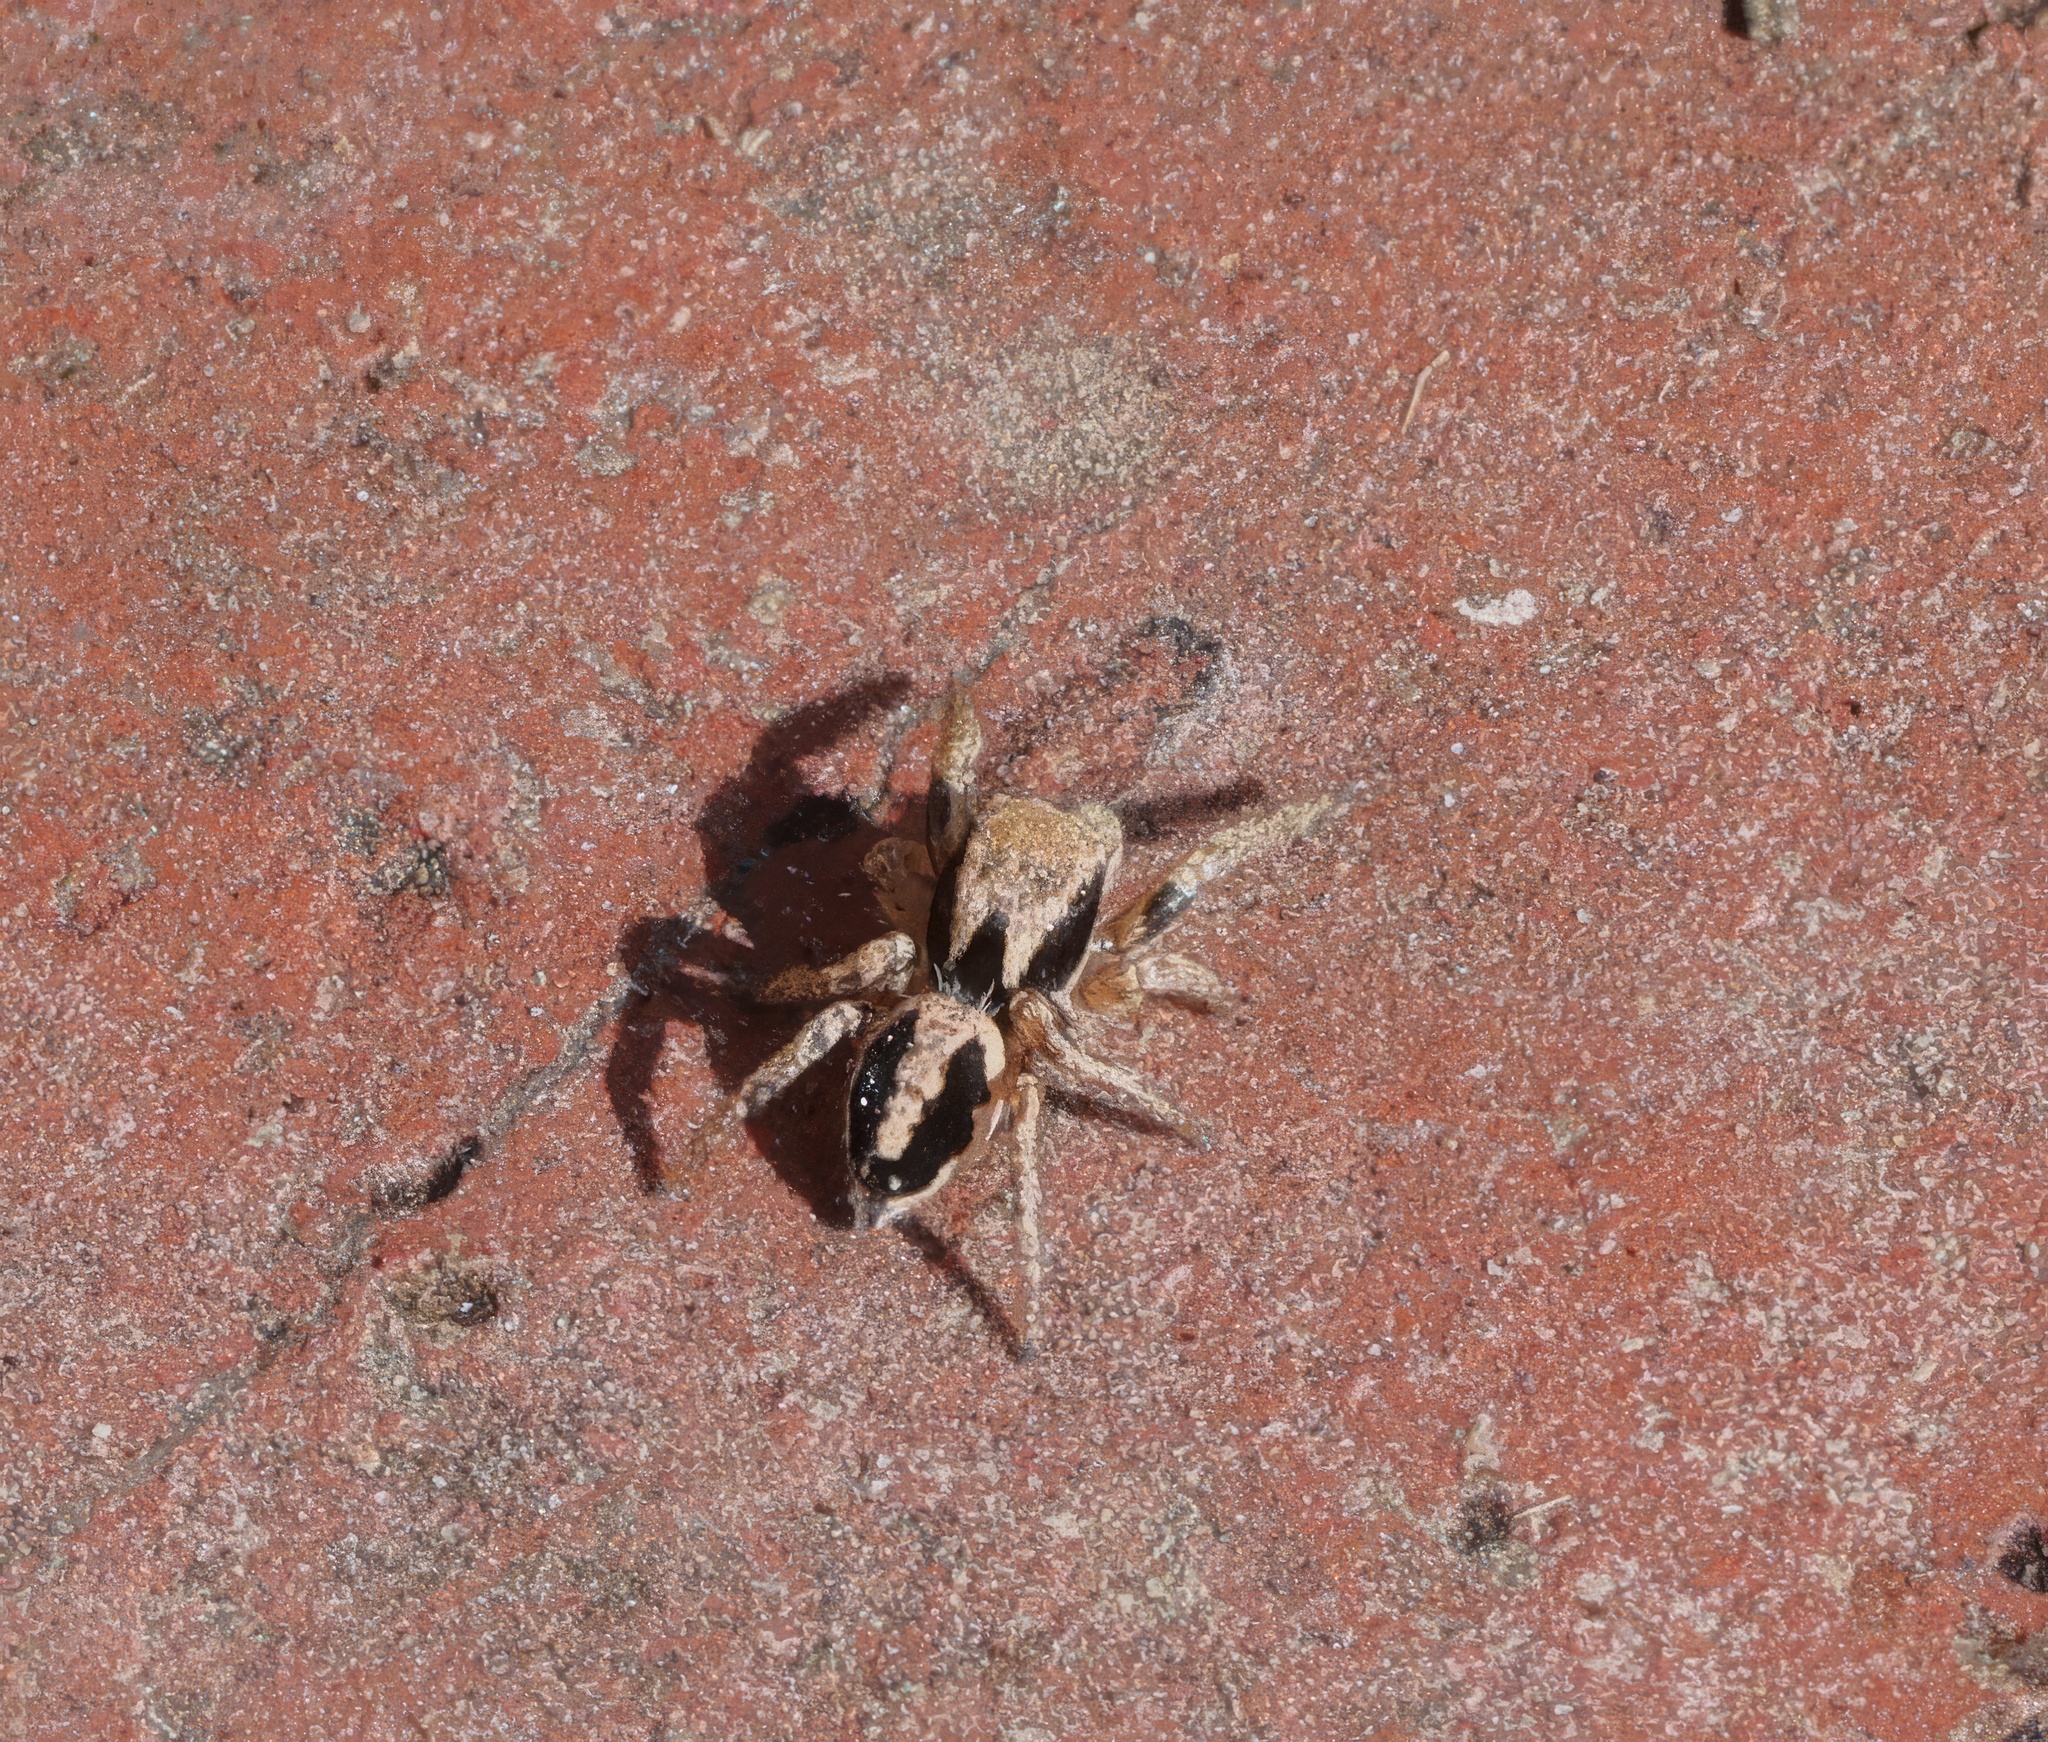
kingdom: Animalia
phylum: Arthropoda
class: Arachnida
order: Araneae
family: Salticidae
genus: Habronattus
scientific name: Habronattus pyrrithrix
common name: Jumping spider
